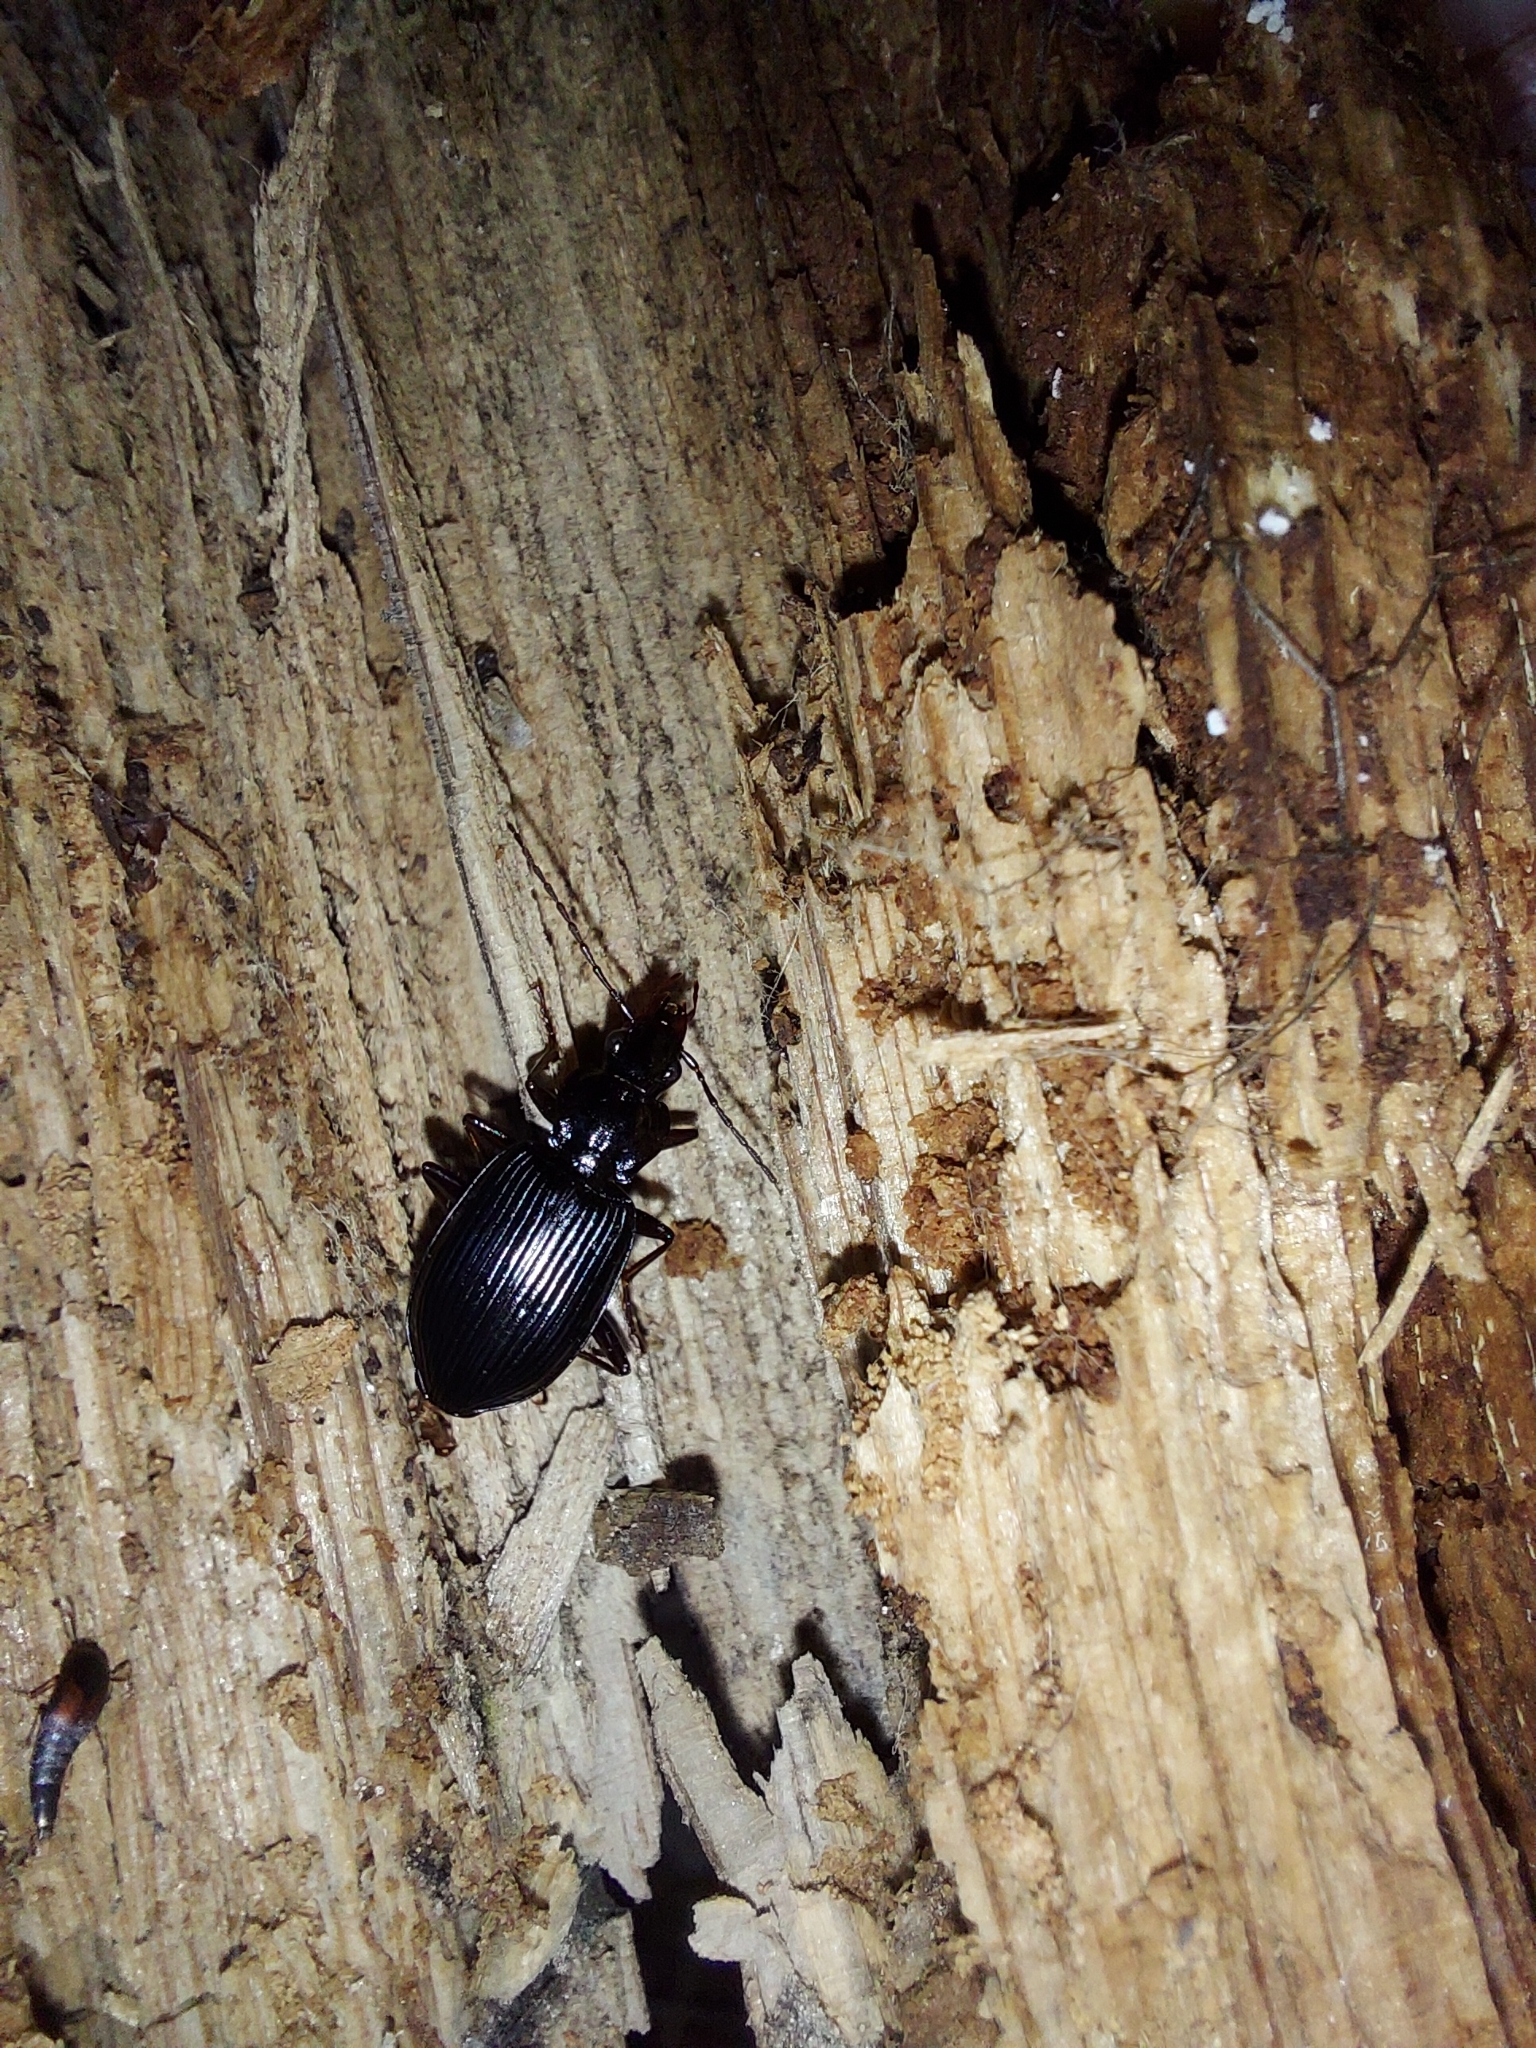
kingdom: Animalia
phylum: Arthropoda
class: Insecta
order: Coleoptera
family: Carabidae
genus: Platynus
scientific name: Platynus assimilis
